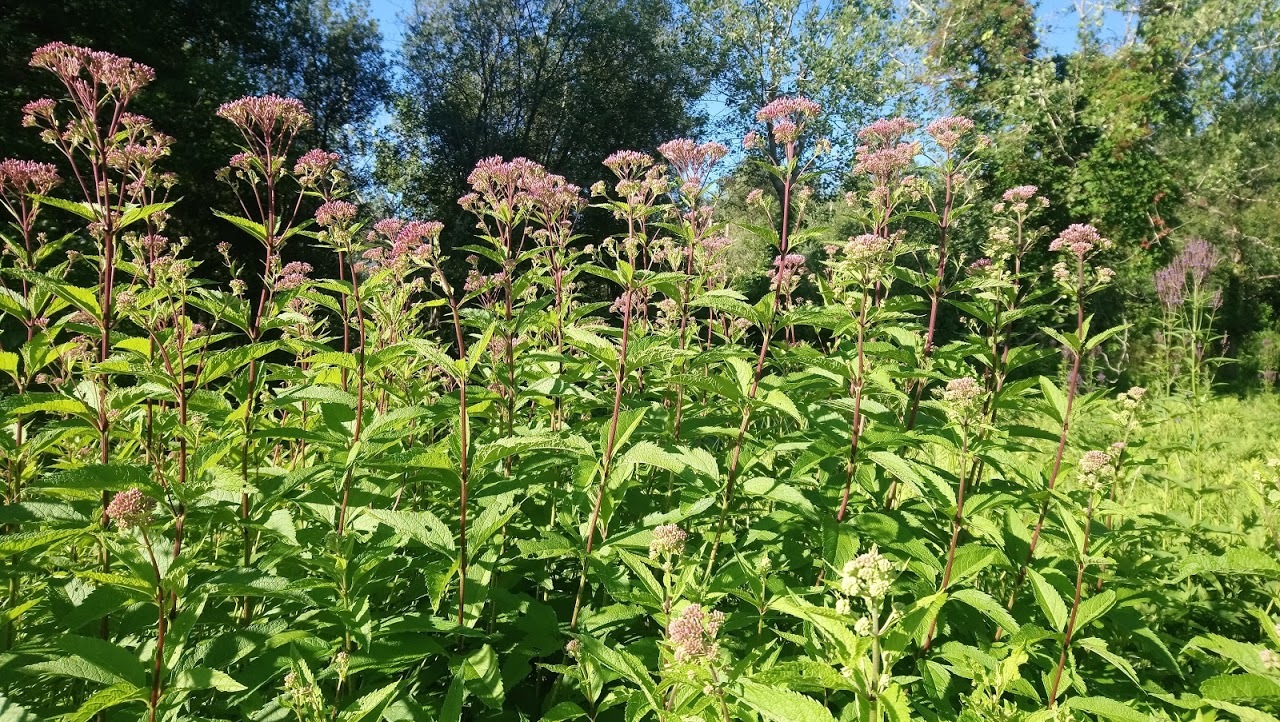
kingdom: Plantae
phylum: Tracheophyta
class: Magnoliopsida
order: Asterales
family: Asteraceae
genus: Eutrochium
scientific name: Eutrochium maculatum
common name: Spotted joe pye weed
